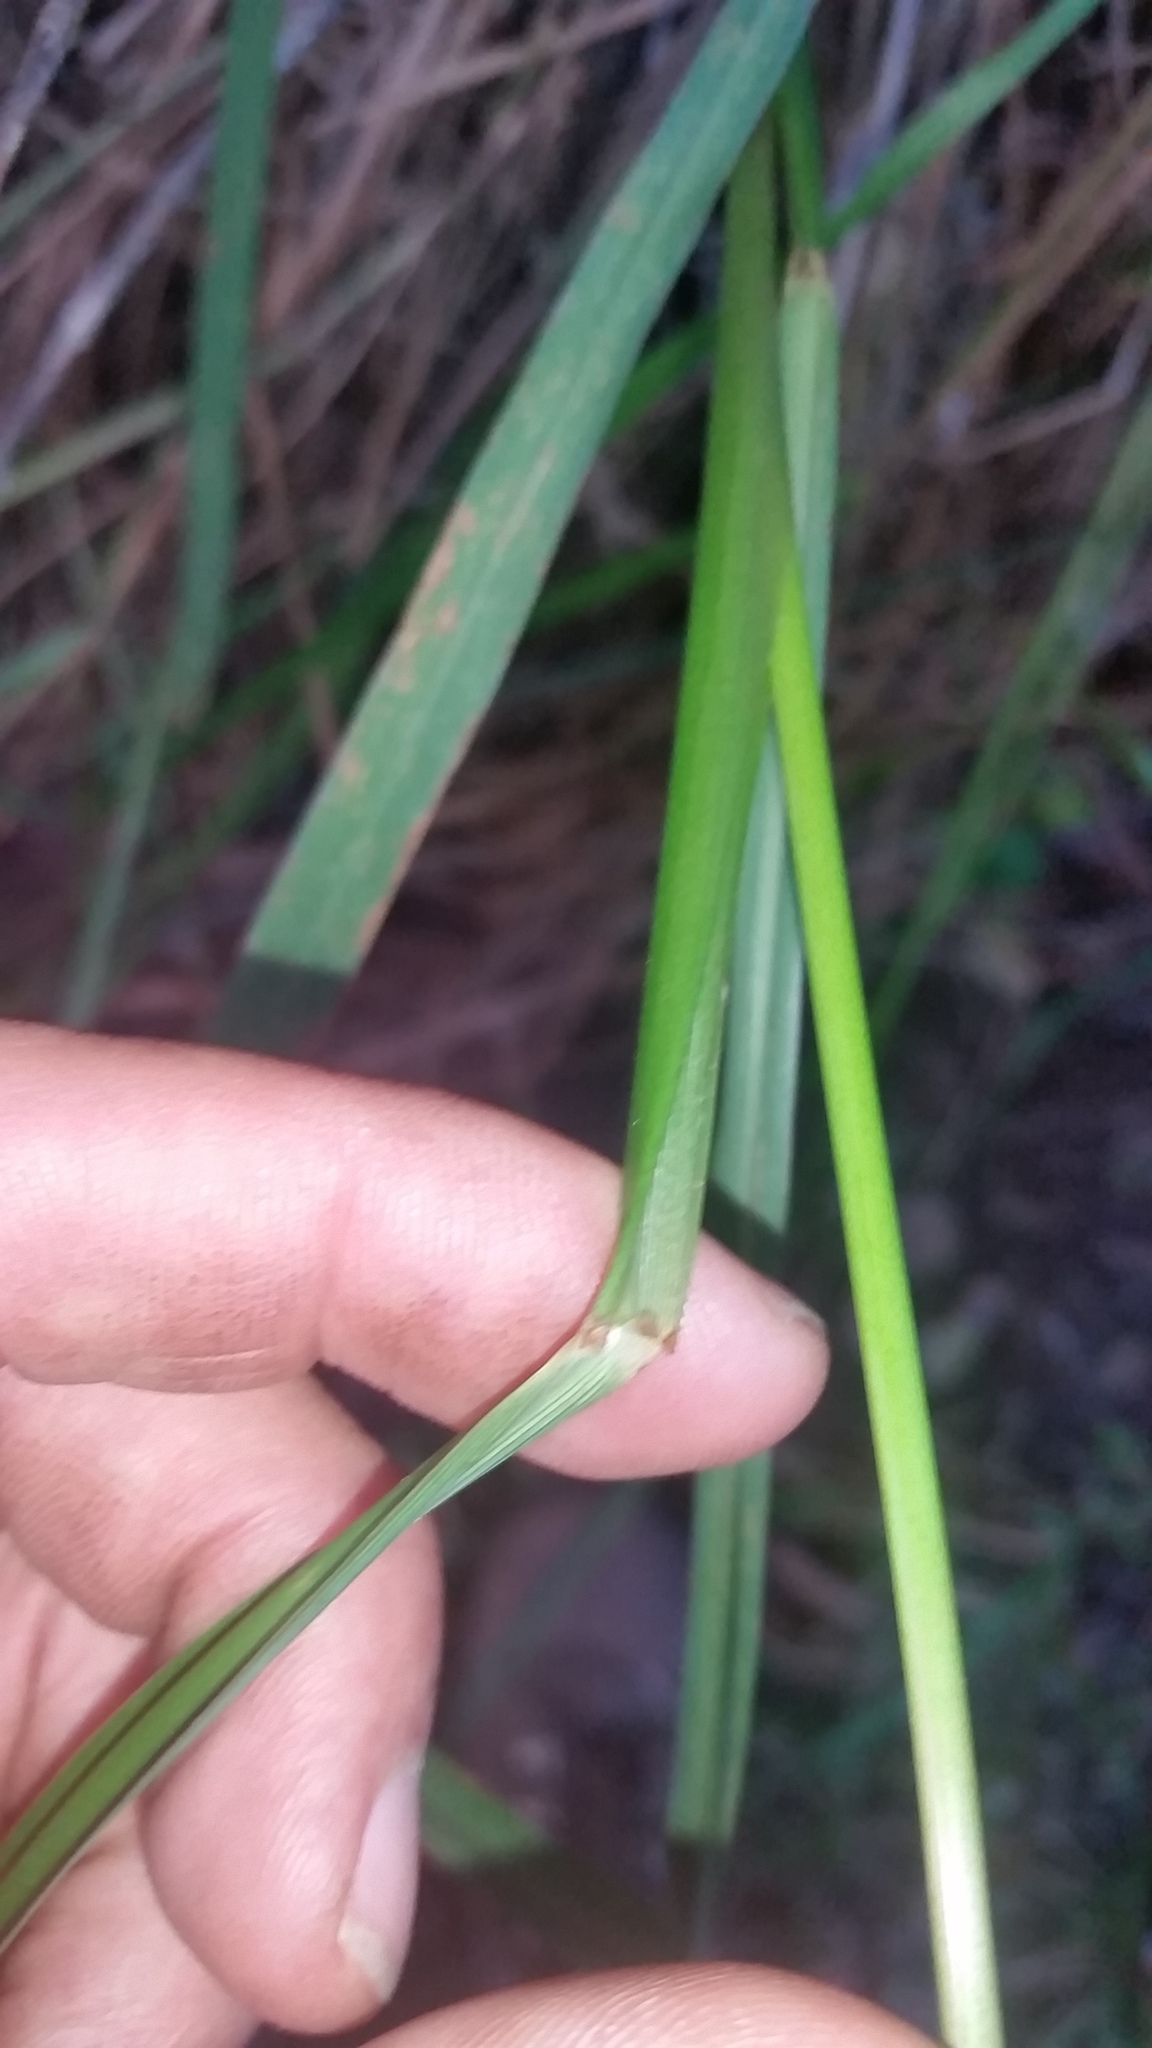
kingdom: Plantae
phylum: Tracheophyta
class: Liliopsida
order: Poales
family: Poaceae
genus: Paspalum
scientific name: Paspalum scrobiculatum
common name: Kodo millet
